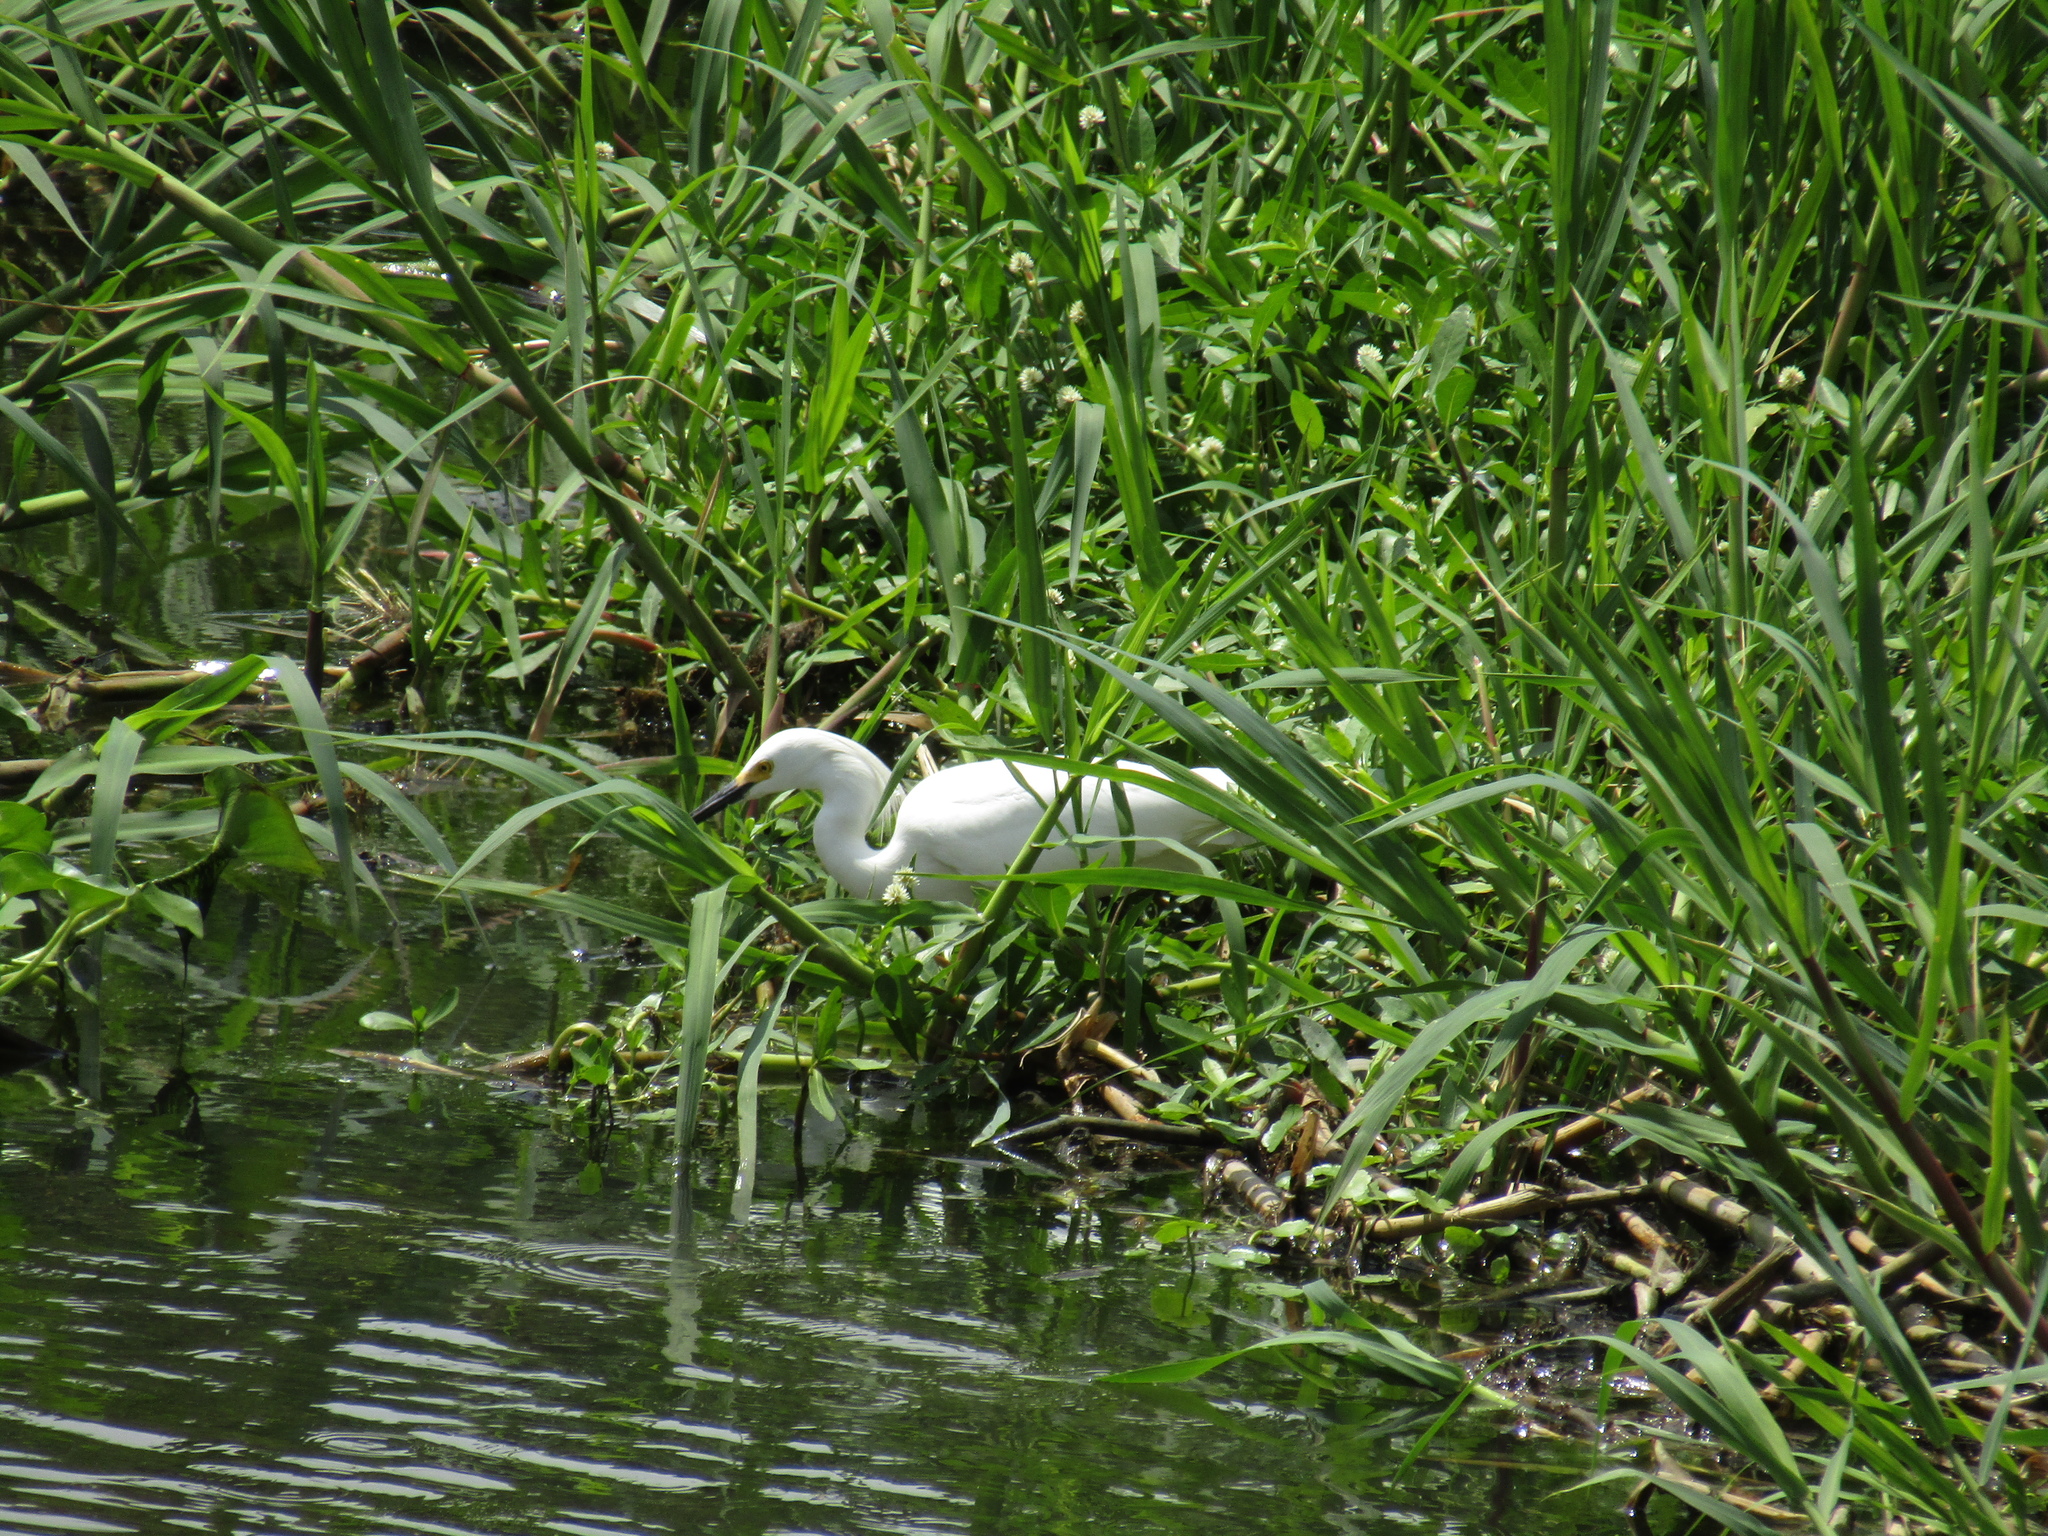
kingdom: Animalia
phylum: Chordata
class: Aves
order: Pelecaniformes
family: Ardeidae
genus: Egretta
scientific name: Egretta thula
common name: Snowy egret
